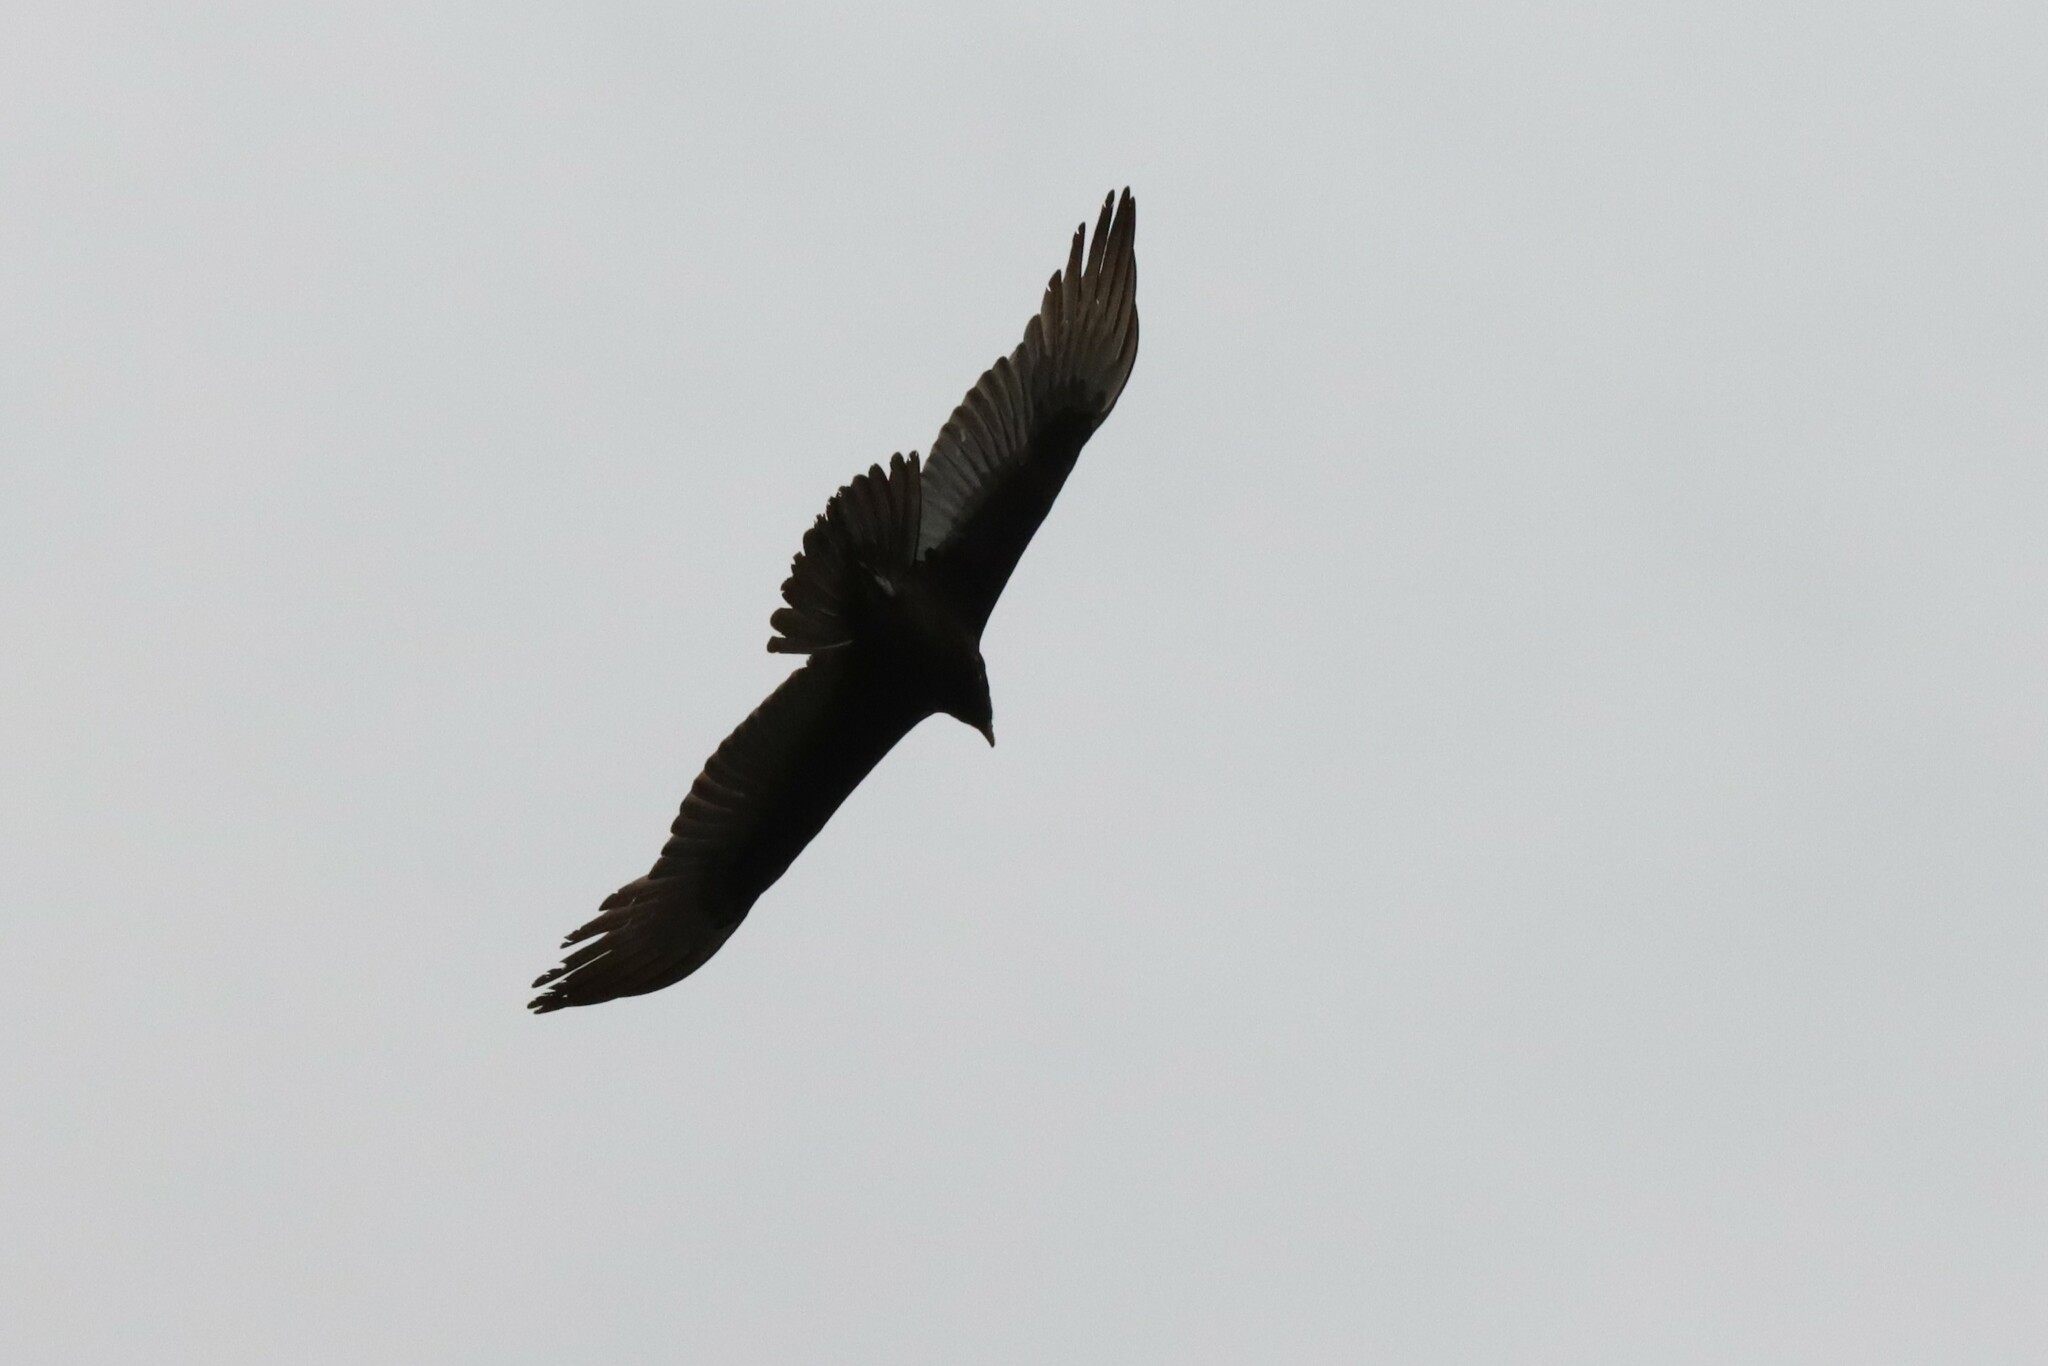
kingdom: Animalia
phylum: Chordata
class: Aves
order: Accipitriformes
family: Cathartidae
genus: Cathartes
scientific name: Cathartes aura
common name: Turkey vulture
